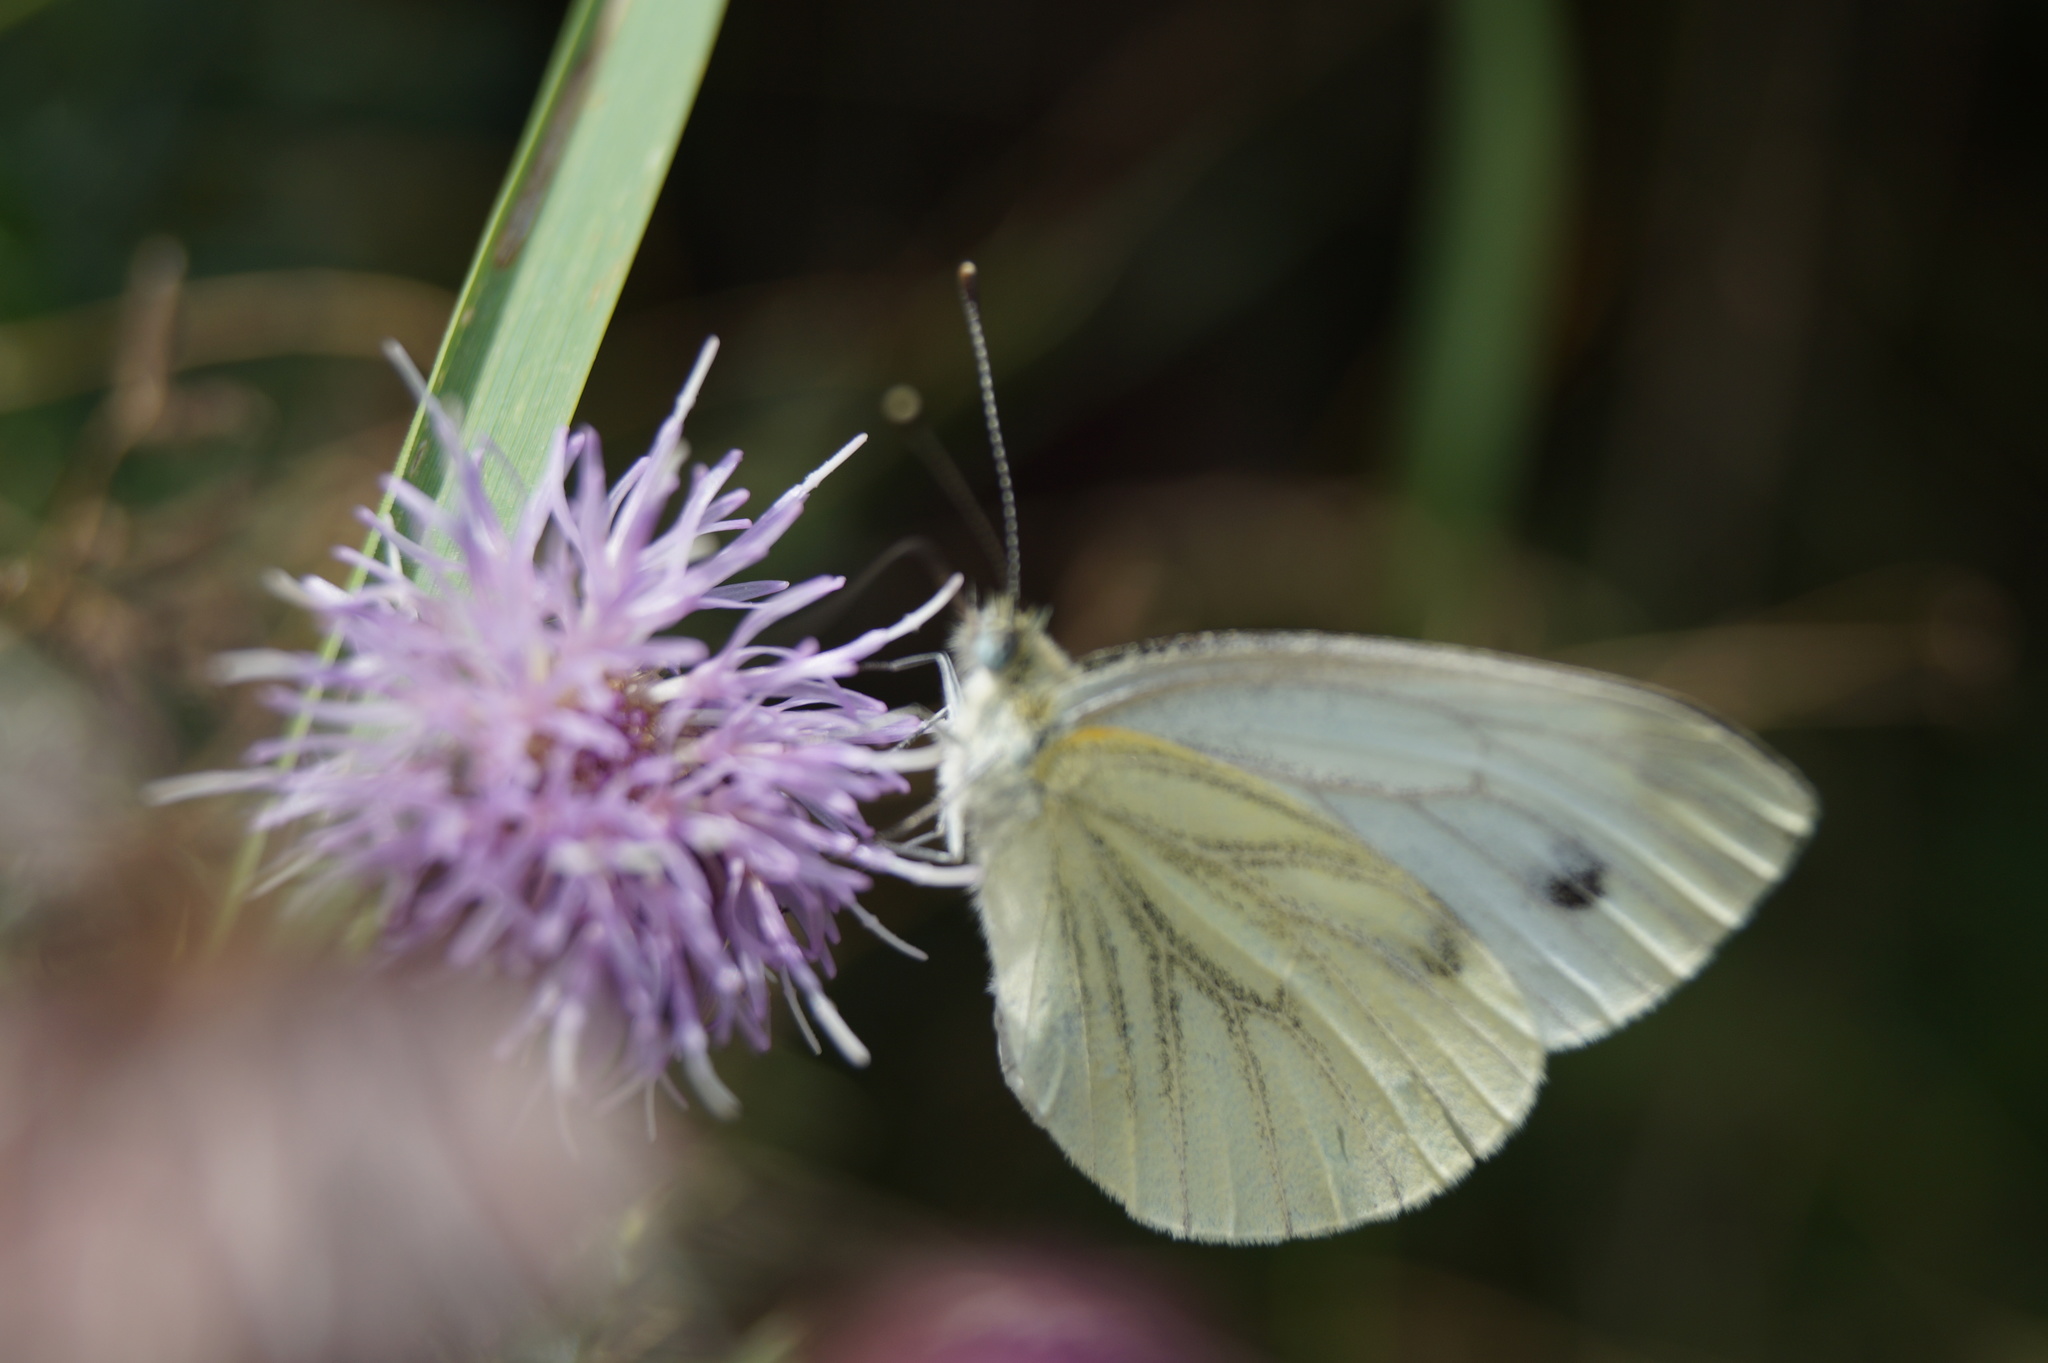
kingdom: Animalia
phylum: Arthropoda
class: Insecta
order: Lepidoptera
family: Pieridae
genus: Pieris
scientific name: Pieris napi
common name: Green-veined white
